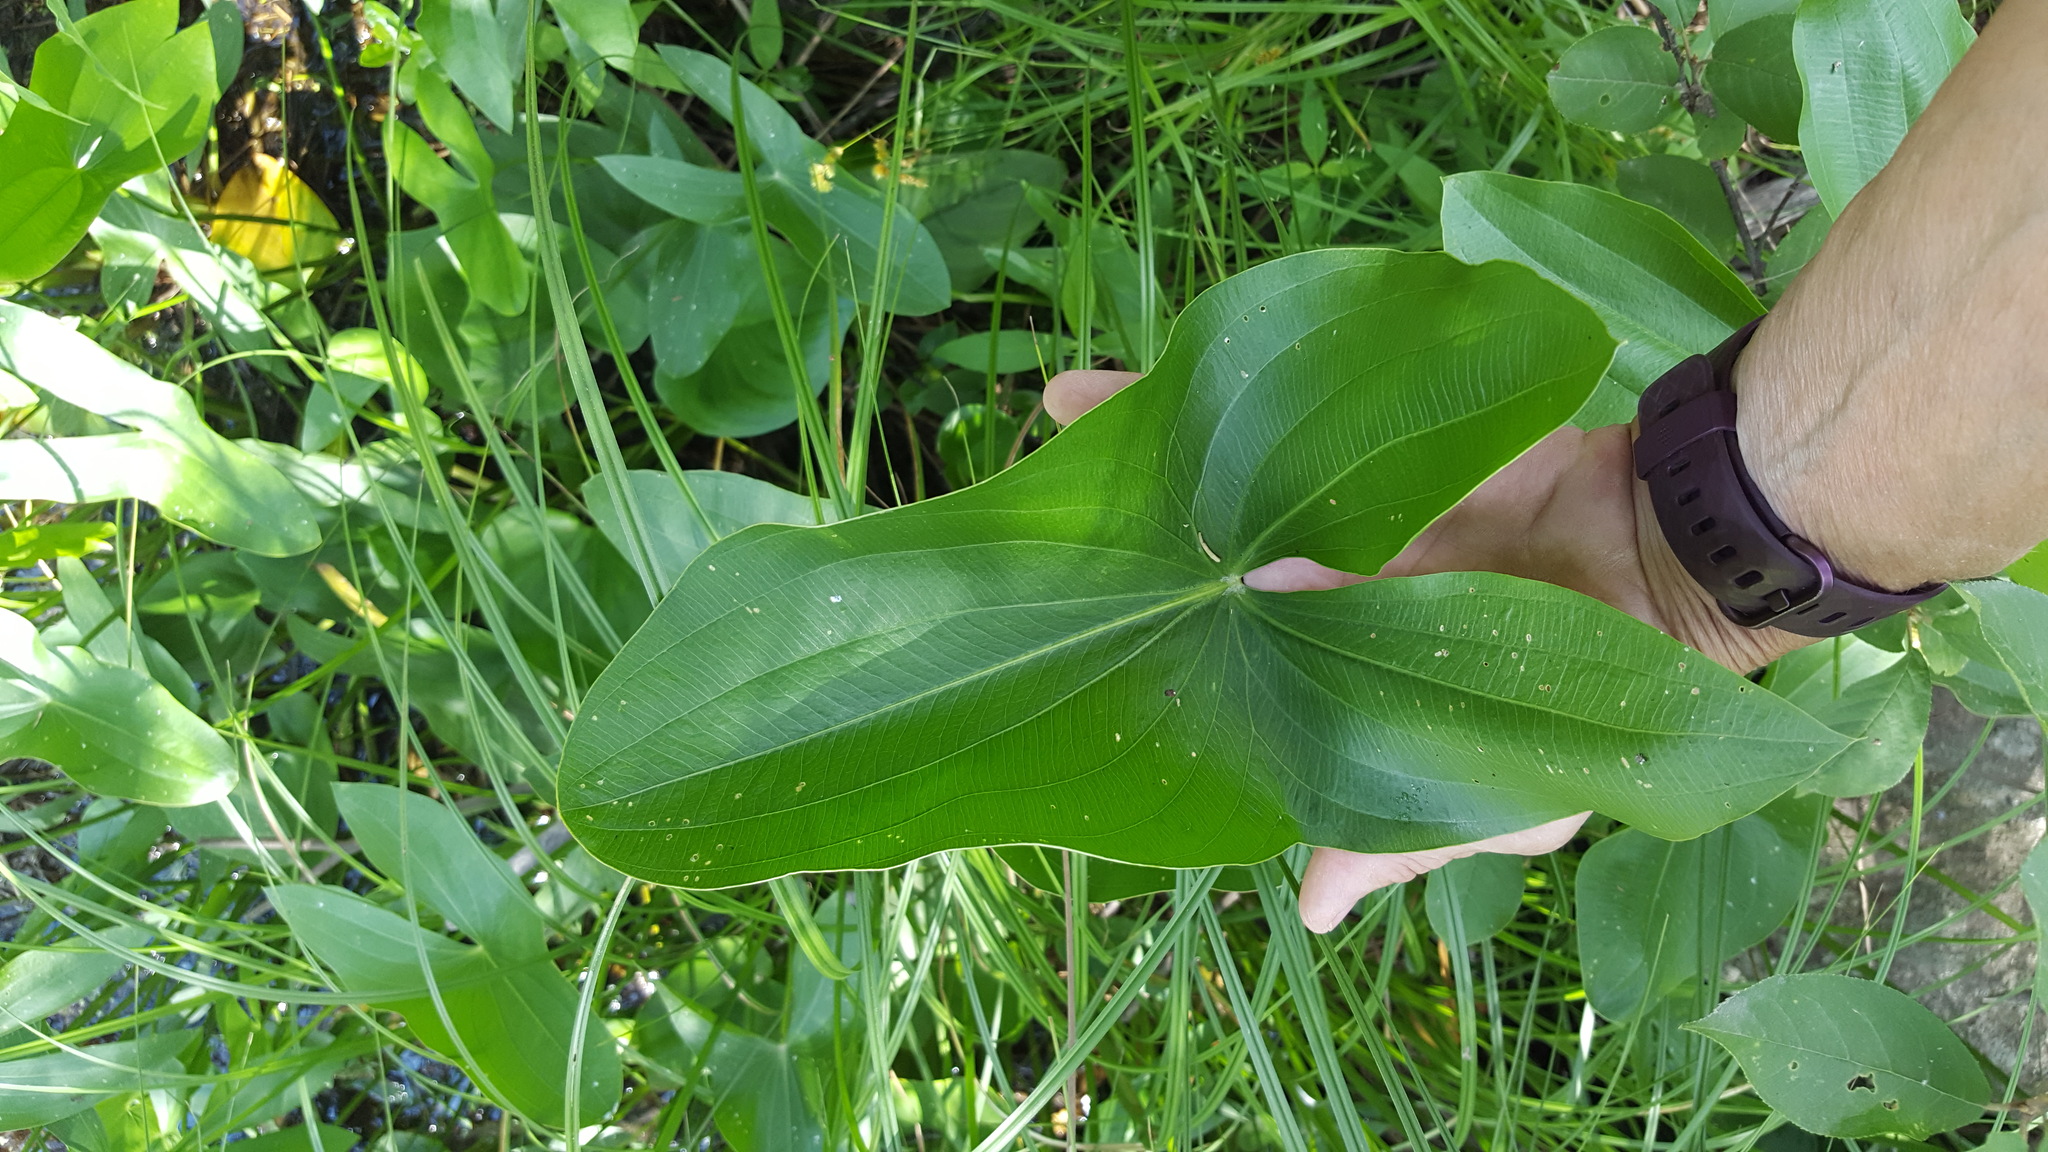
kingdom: Plantae
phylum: Tracheophyta
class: Liliopsida
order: Alismatales
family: Alismataceae
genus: Sagittaria
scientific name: Sagittaria latifolia
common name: Duck-potato
